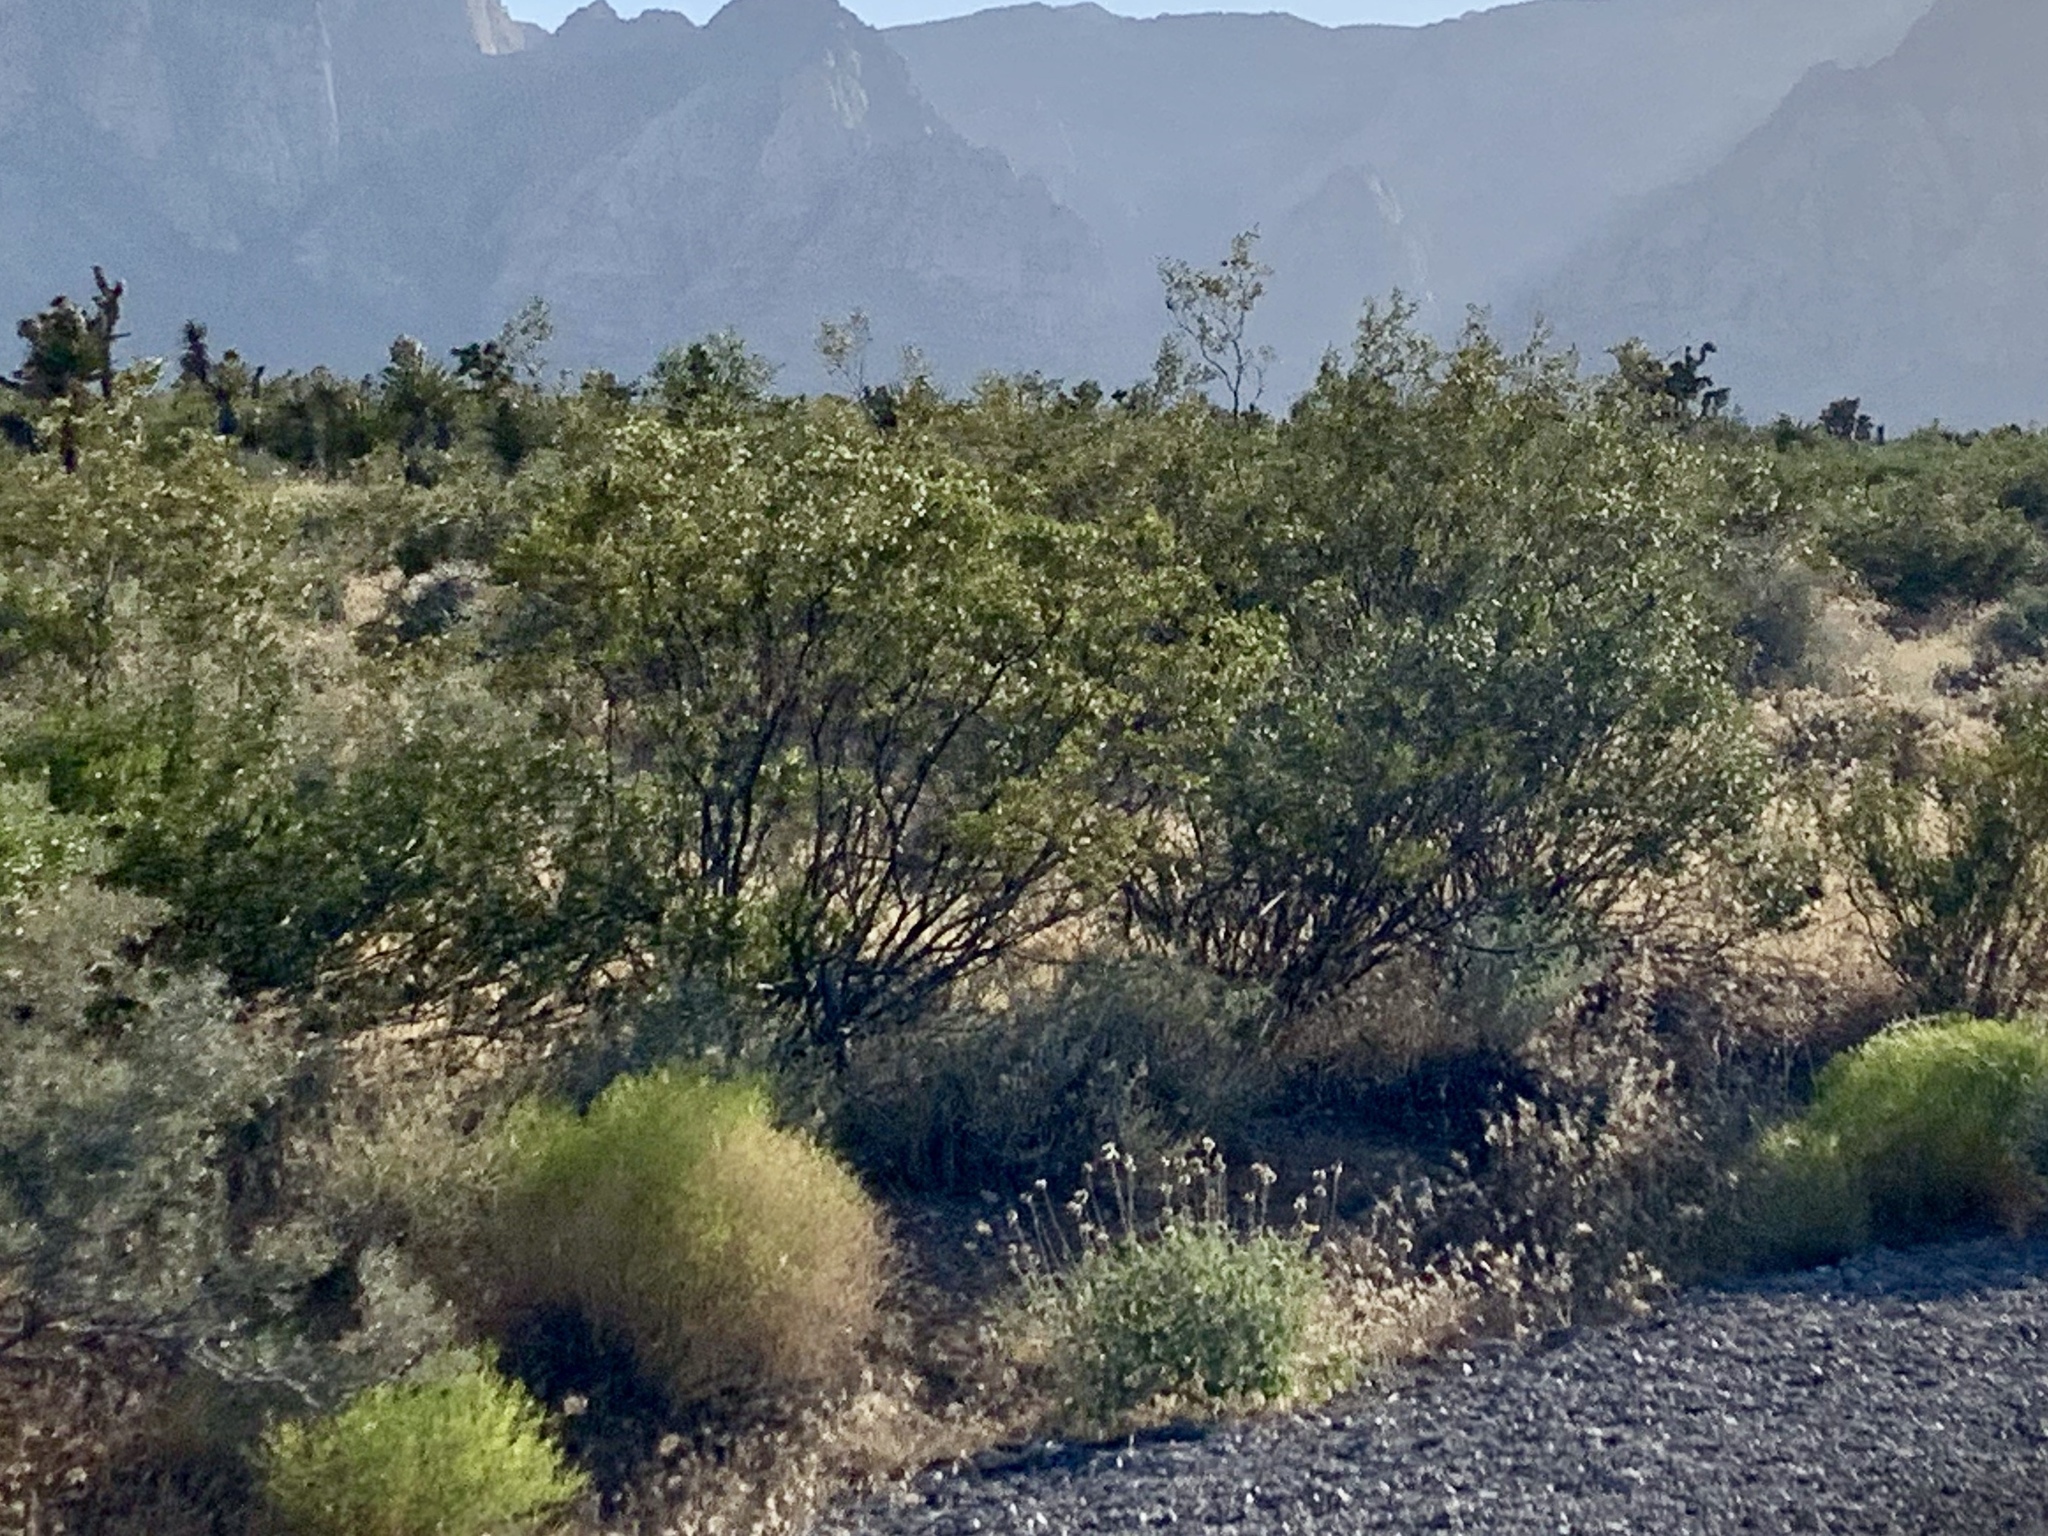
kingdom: Plantae
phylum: Tracheophyta
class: Magnoliopsida
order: Zygophyllales
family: Zygophyllaceae
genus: Larrea
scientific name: Larrea tridentata
